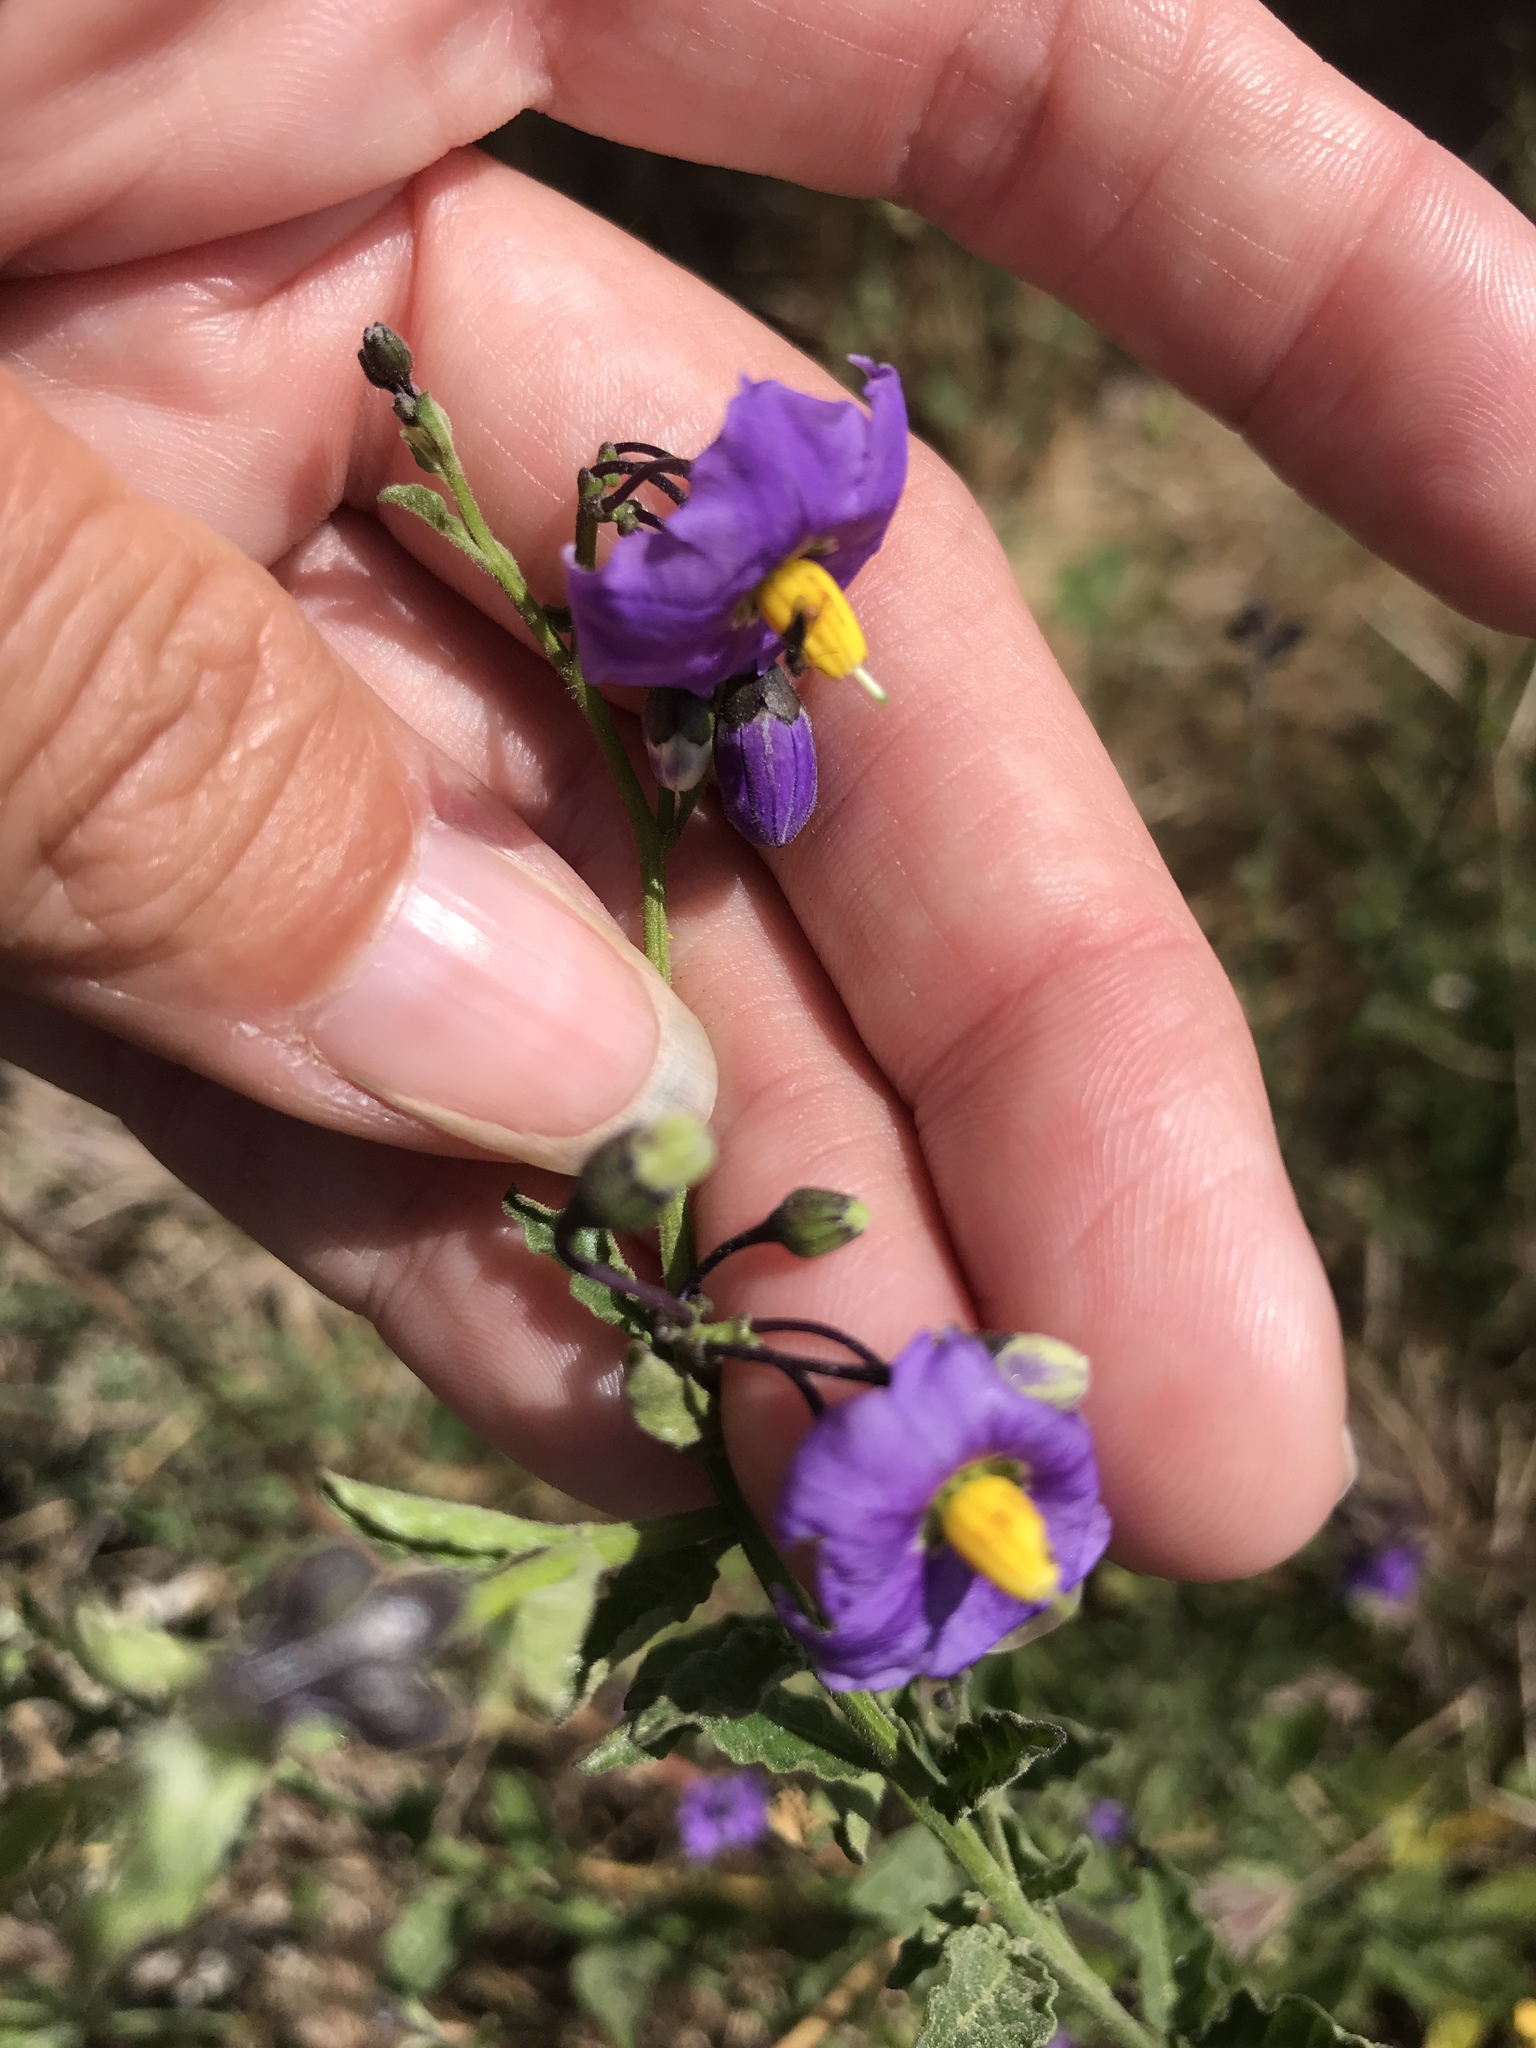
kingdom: Plantae
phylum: Tracheophyta
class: Magnoliopsida
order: Solanales
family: Solanaceae
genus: Solanum
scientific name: Solanum umbelliferum
